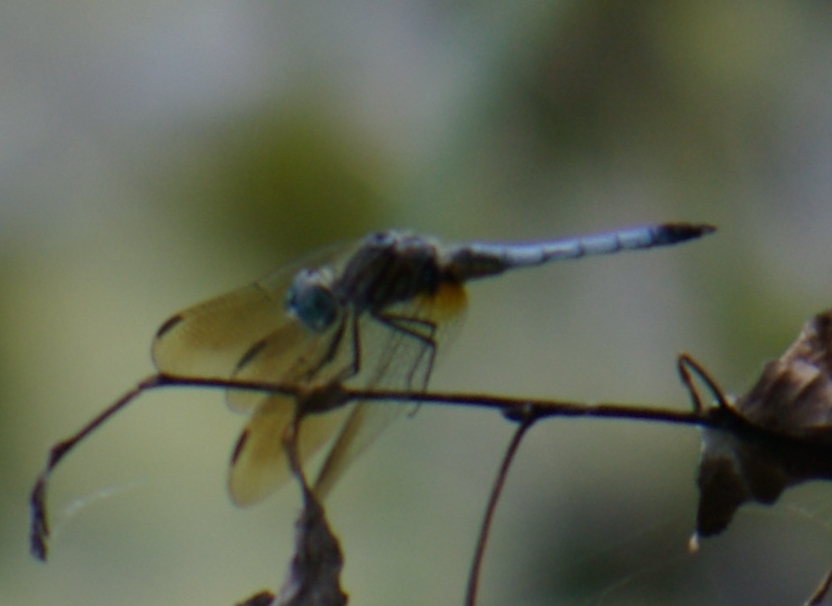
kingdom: Animalia
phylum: Arthropoda
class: Insecta
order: Odonata
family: Libellulidae
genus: Pachydiplax
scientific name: Pachydiplax longipennis
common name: Blue dasher
